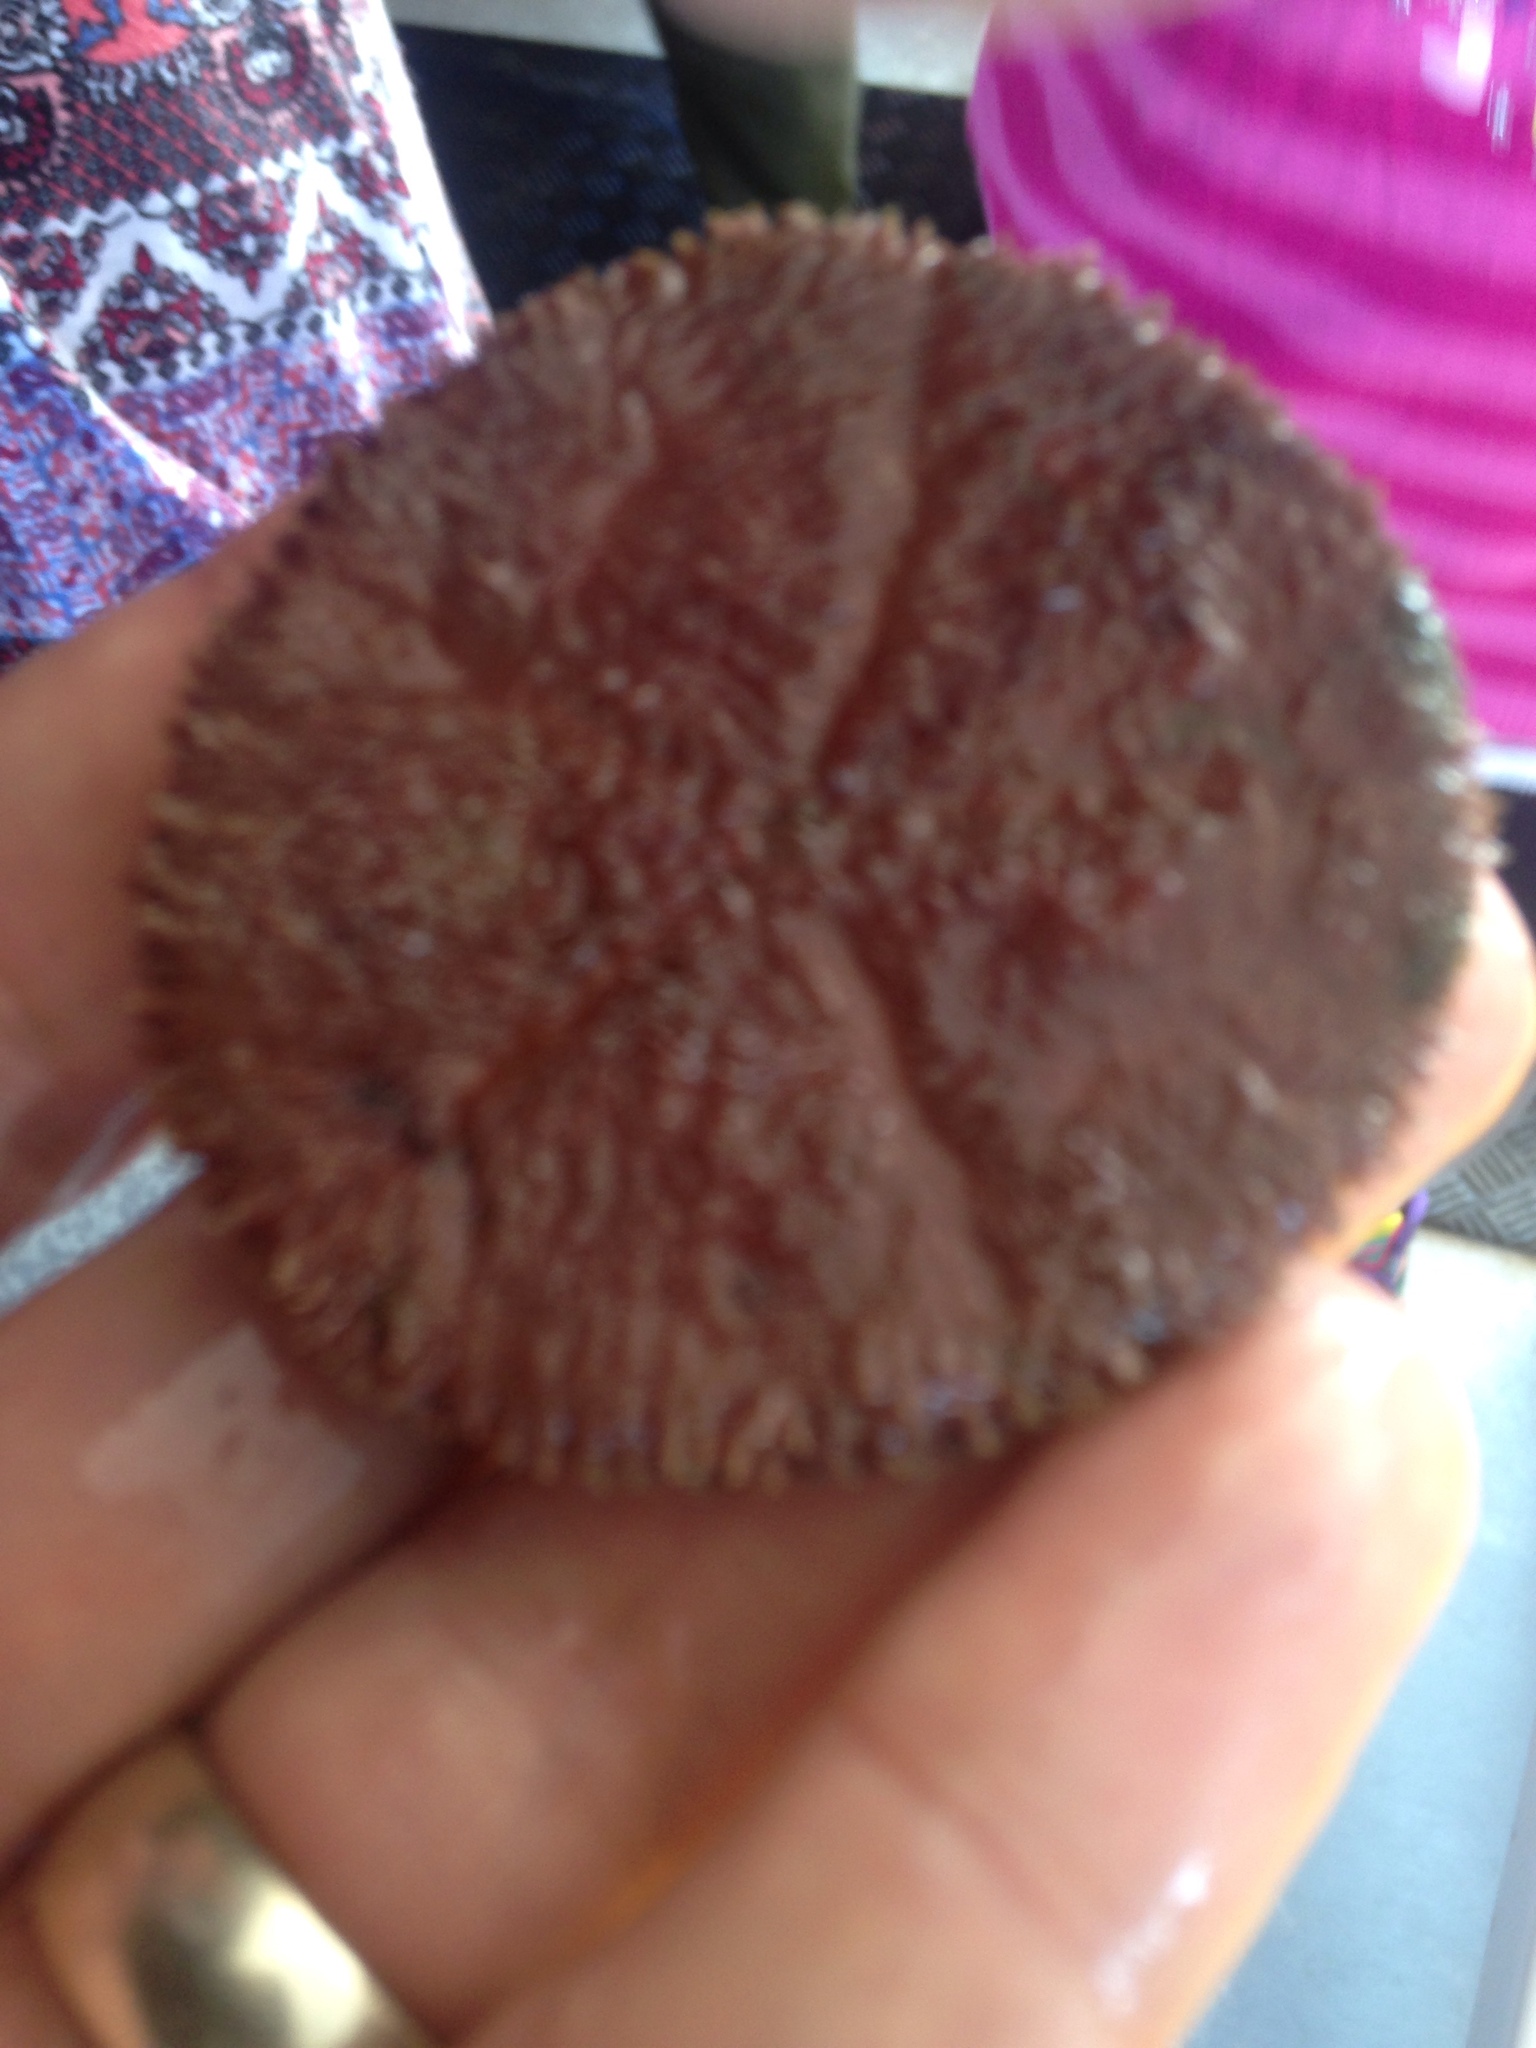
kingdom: Animalia
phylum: Echinodermata
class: Echinoidea
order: Echinolampadacea
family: Echinarachniidae
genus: Echinarachnius
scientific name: Echinarachnius parma
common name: Common sand dollar
